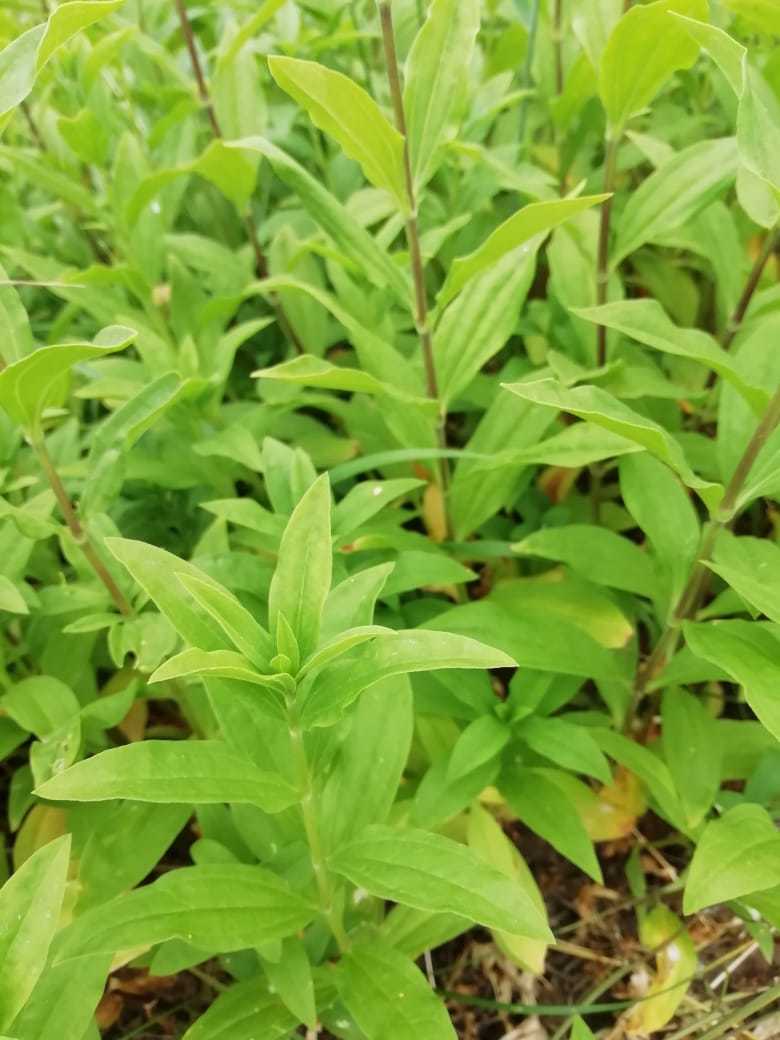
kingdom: Plantae
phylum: Tracheophyta
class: Magnoliopsida
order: Caryophyllales
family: Caryophyllaceae
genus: Saponaria
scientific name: Saponaria officinalis
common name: Soapwort
